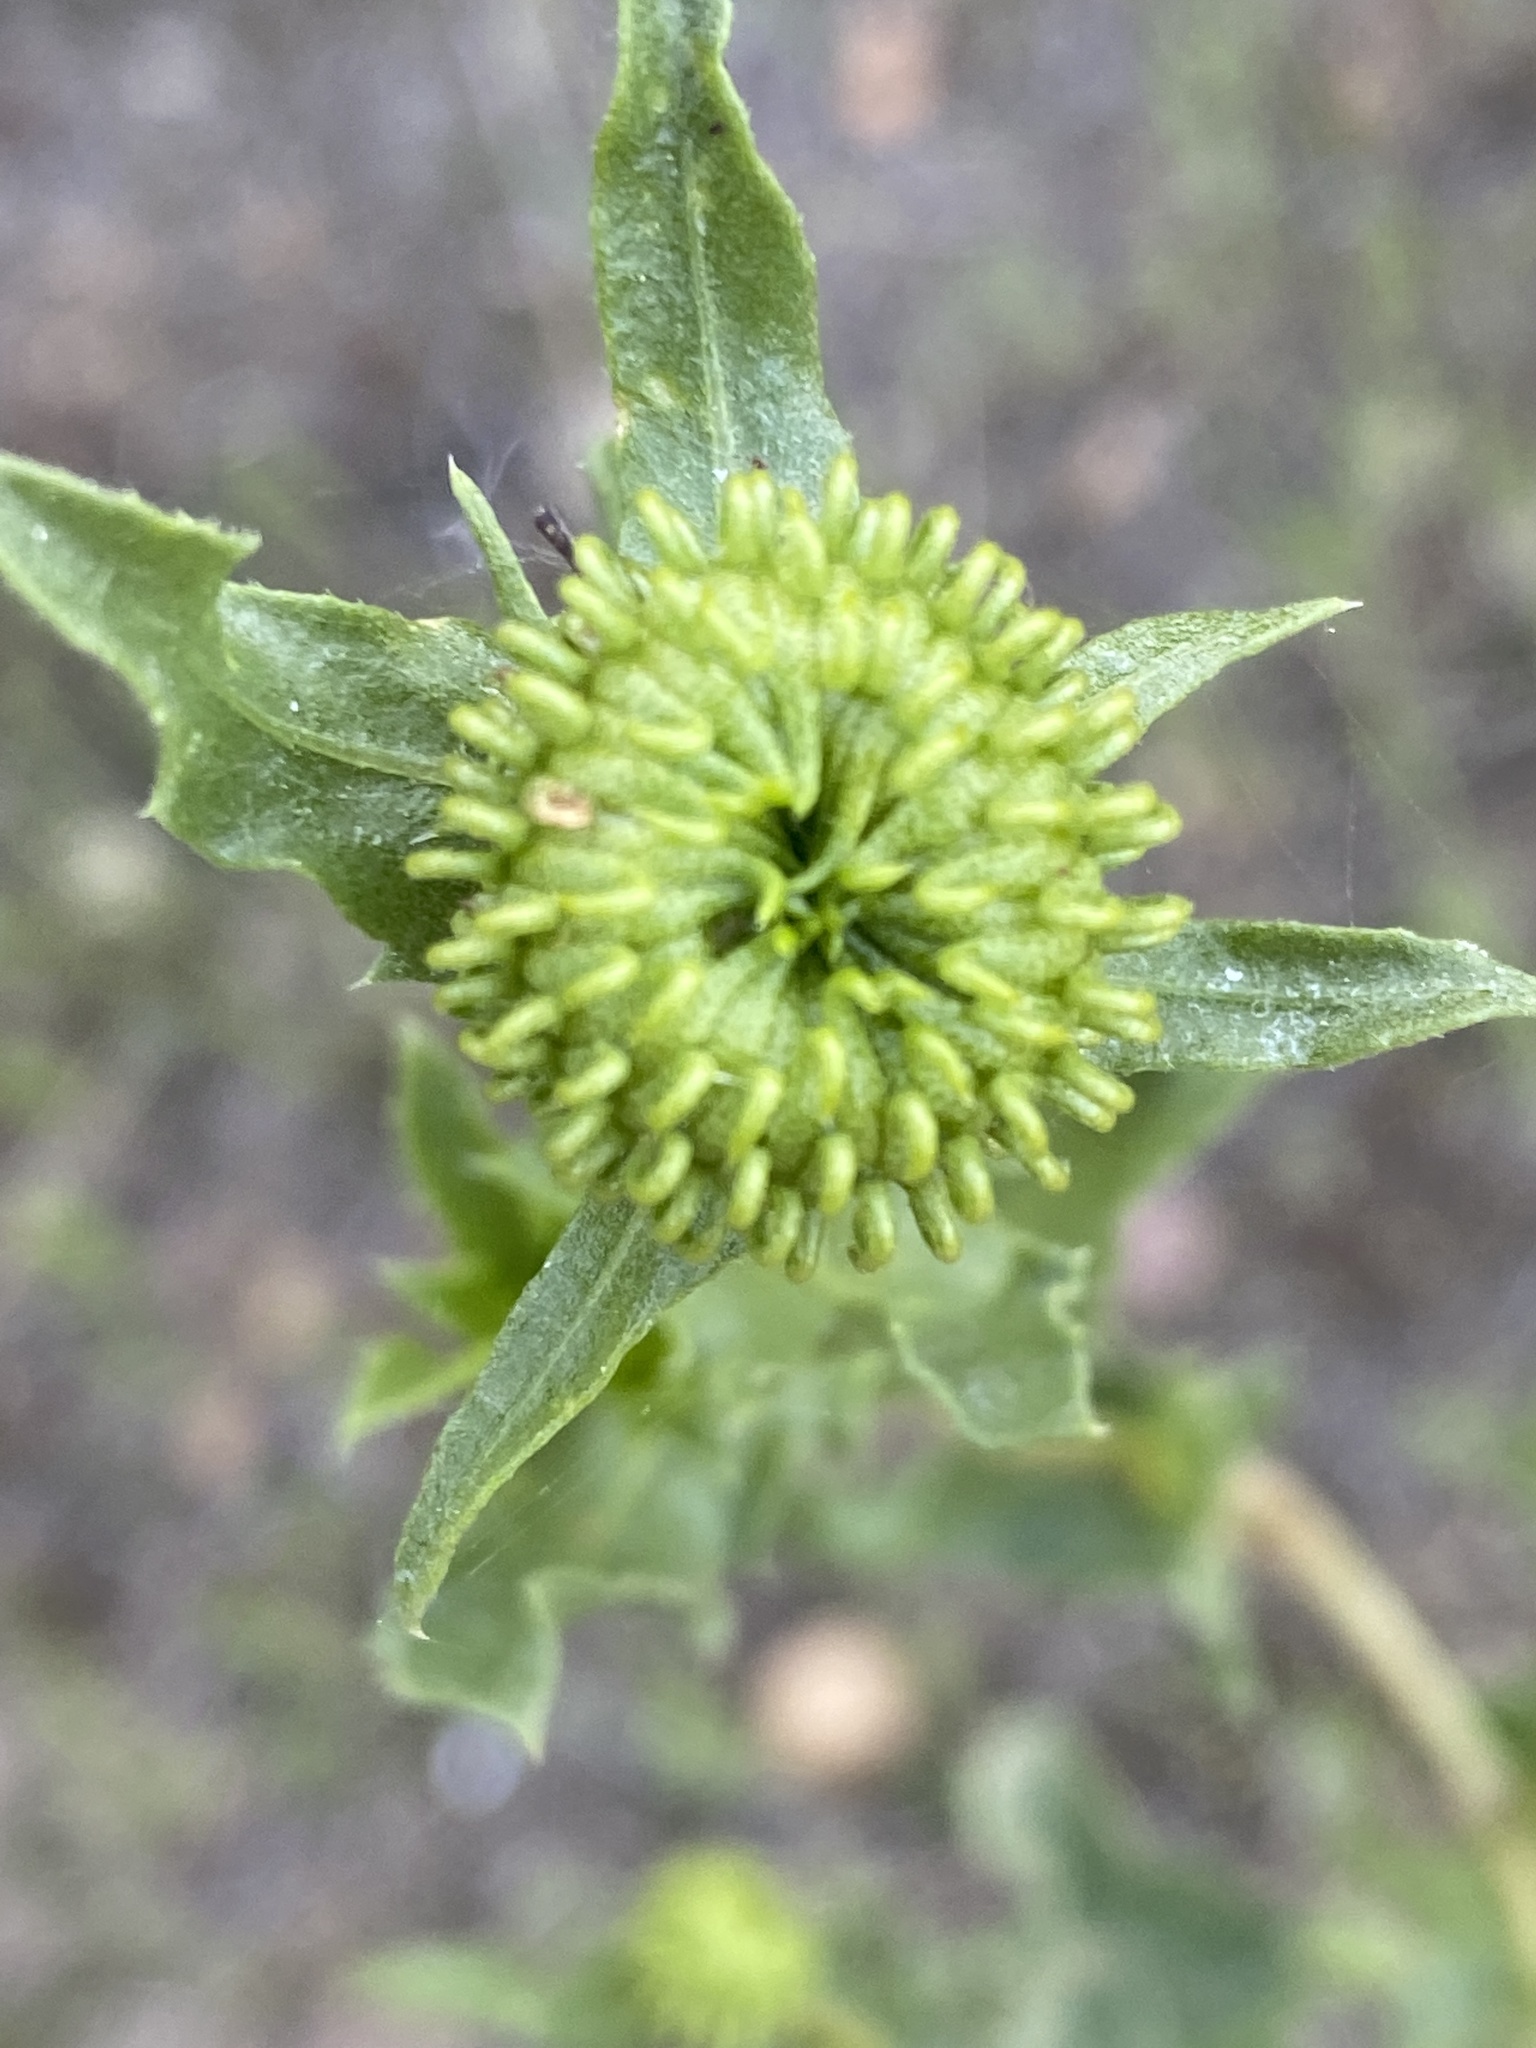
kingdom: Plantae
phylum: Tracheophyta
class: Magnoliopsida
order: Asterales
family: Asteraceae
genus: Grindelia
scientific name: Grindelia hirsutula
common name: Hairy gumweed
